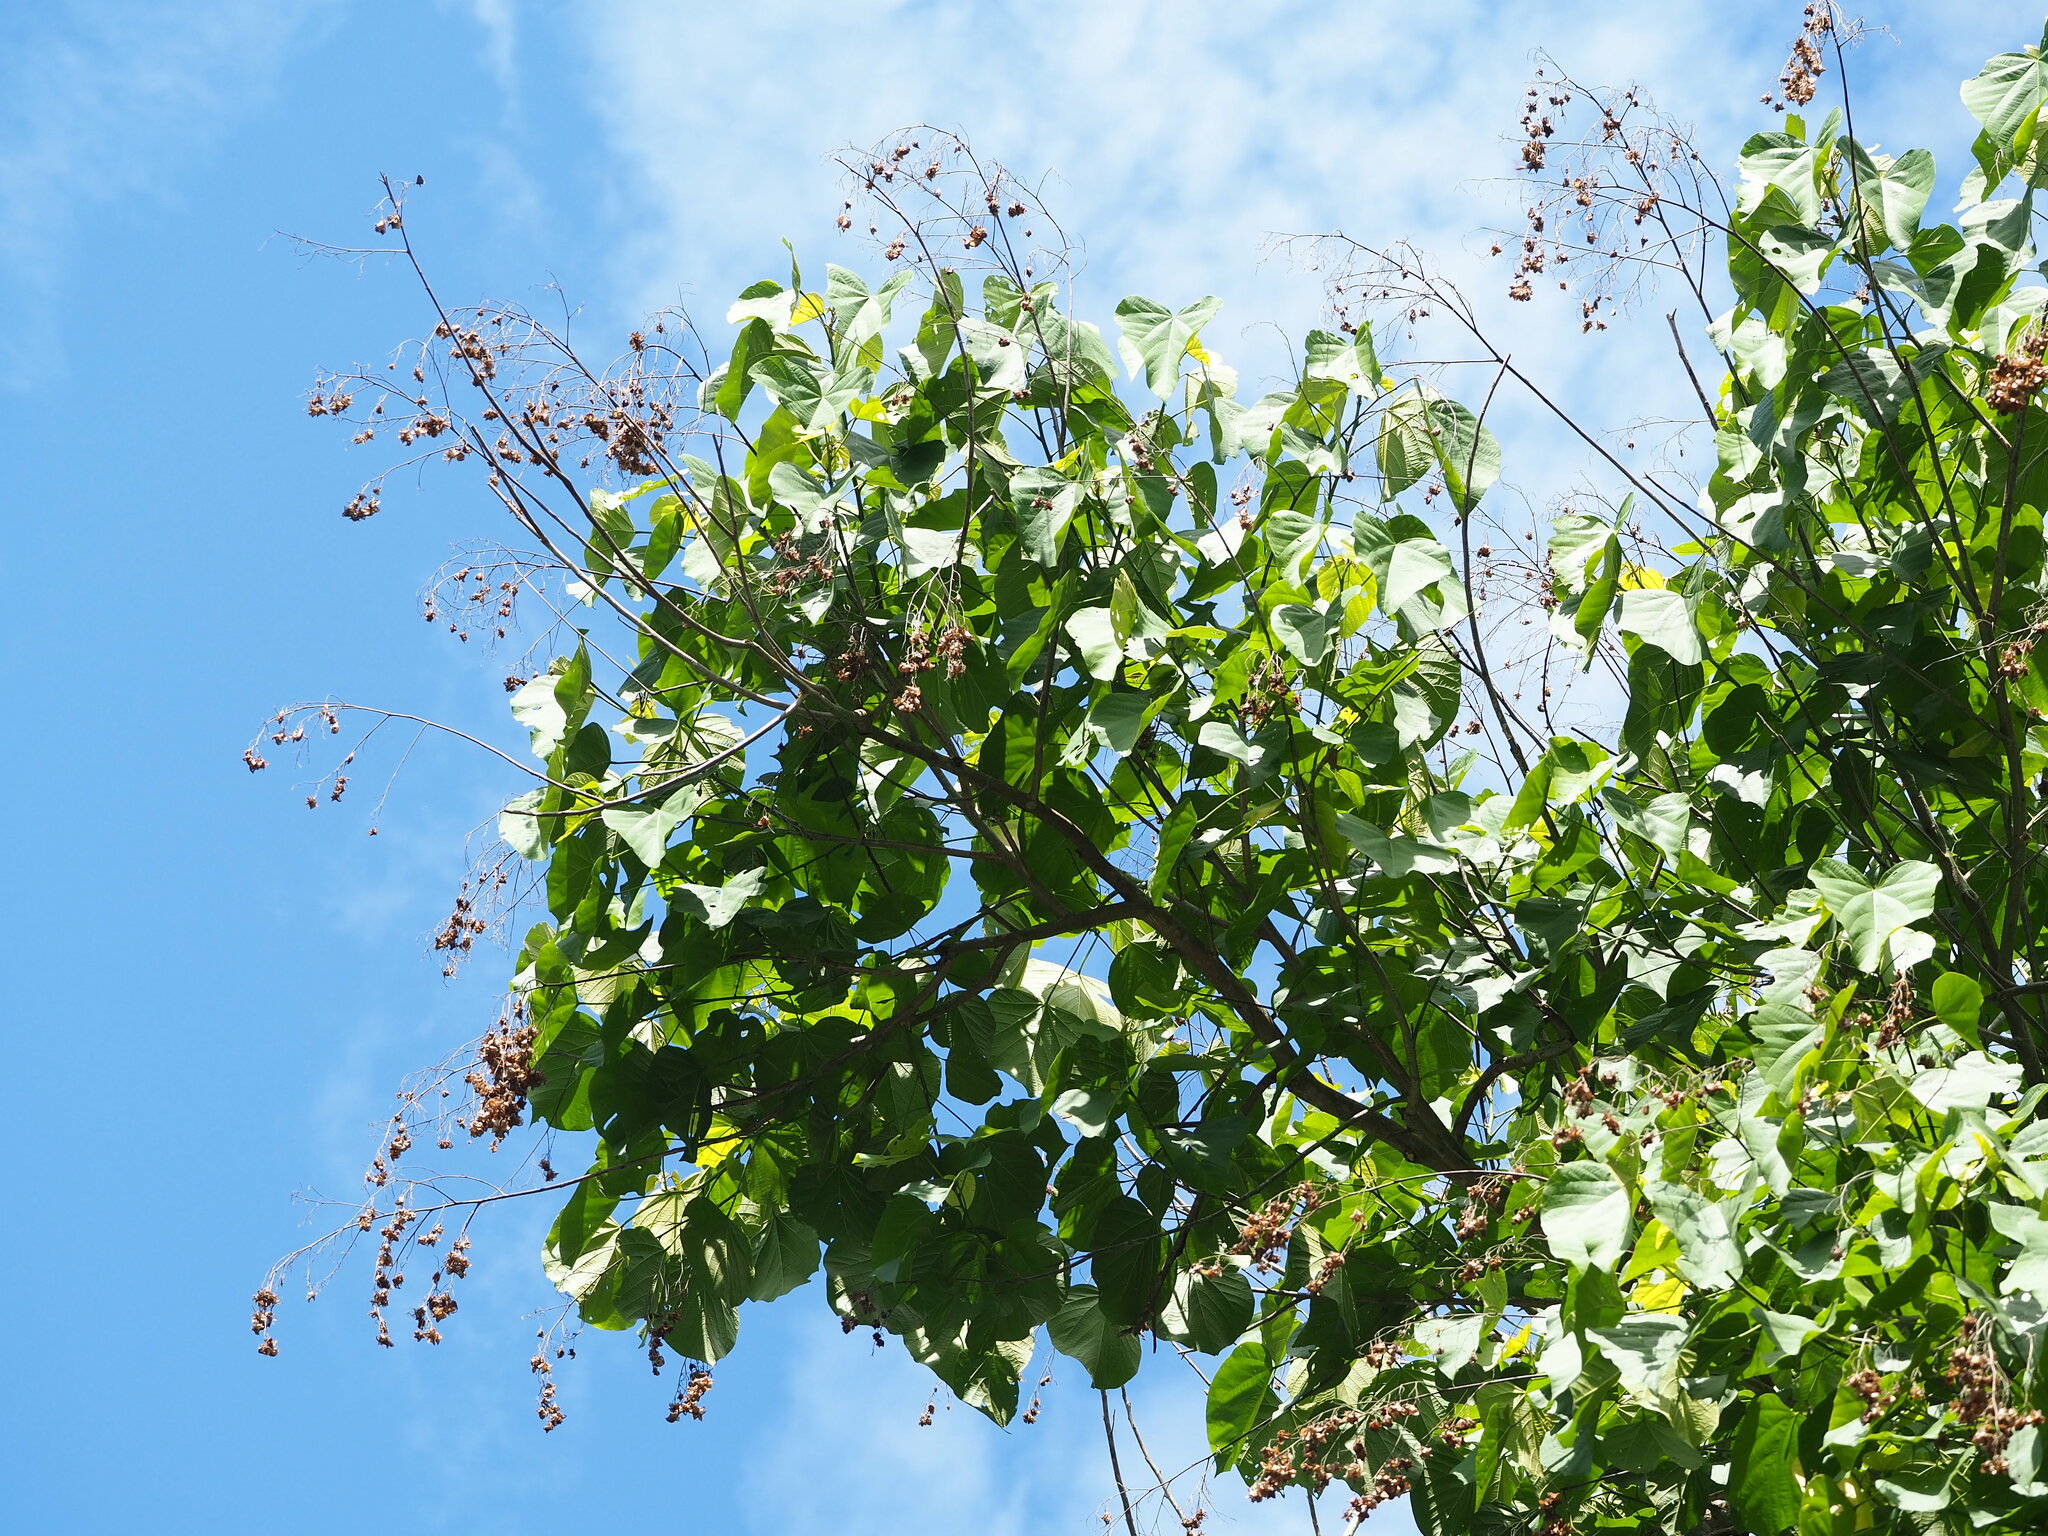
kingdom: Plantae
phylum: Tracheophyta
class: Magnoliopsida
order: Malvales
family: Malvaceae
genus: Kleinhovia
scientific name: Kleinhovia hospita
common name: Guest-tree
